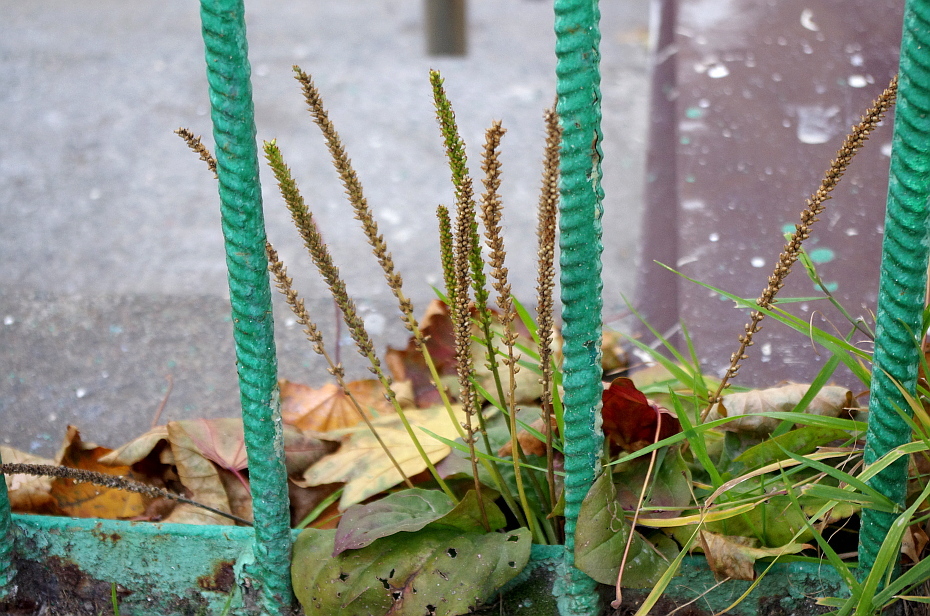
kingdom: Plantae
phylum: Tracheophyta
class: Magnoliopsida
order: Lamiales
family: Plantaginaceae
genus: Plantago
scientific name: Plantago major
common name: Common plantain
